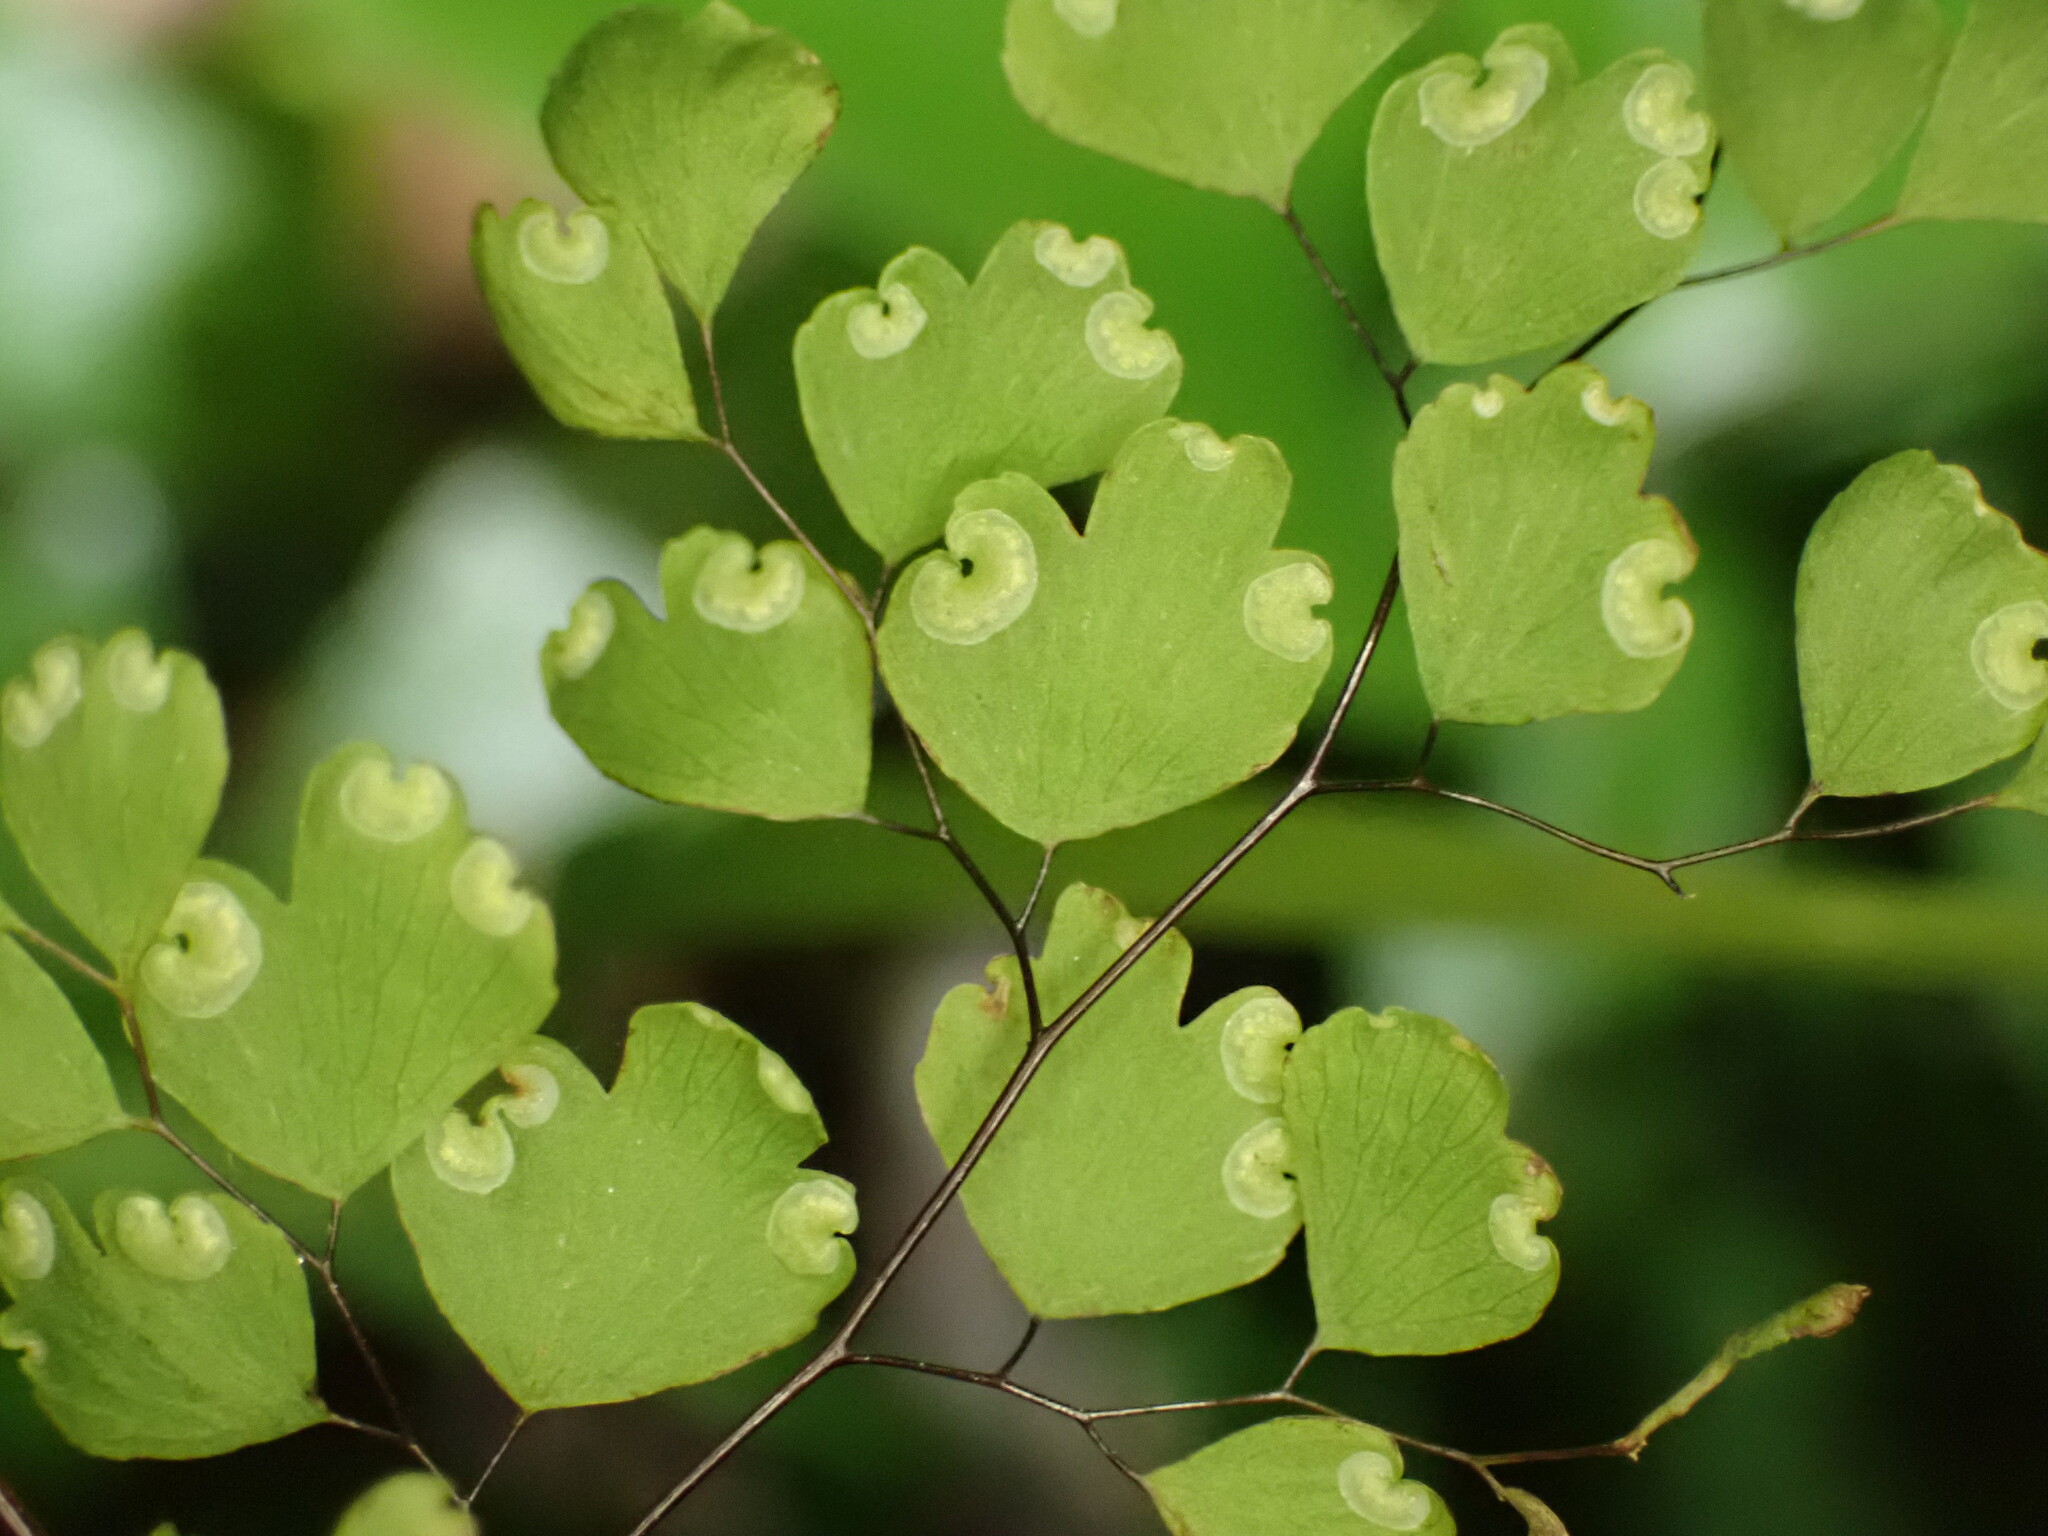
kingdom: Plantae
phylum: Tracheophyta
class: Polypodiopsida
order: Polypodiales
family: Pteridaceae
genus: Adiantum
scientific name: Adiantum raddianum
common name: Delta maidenhair fern
